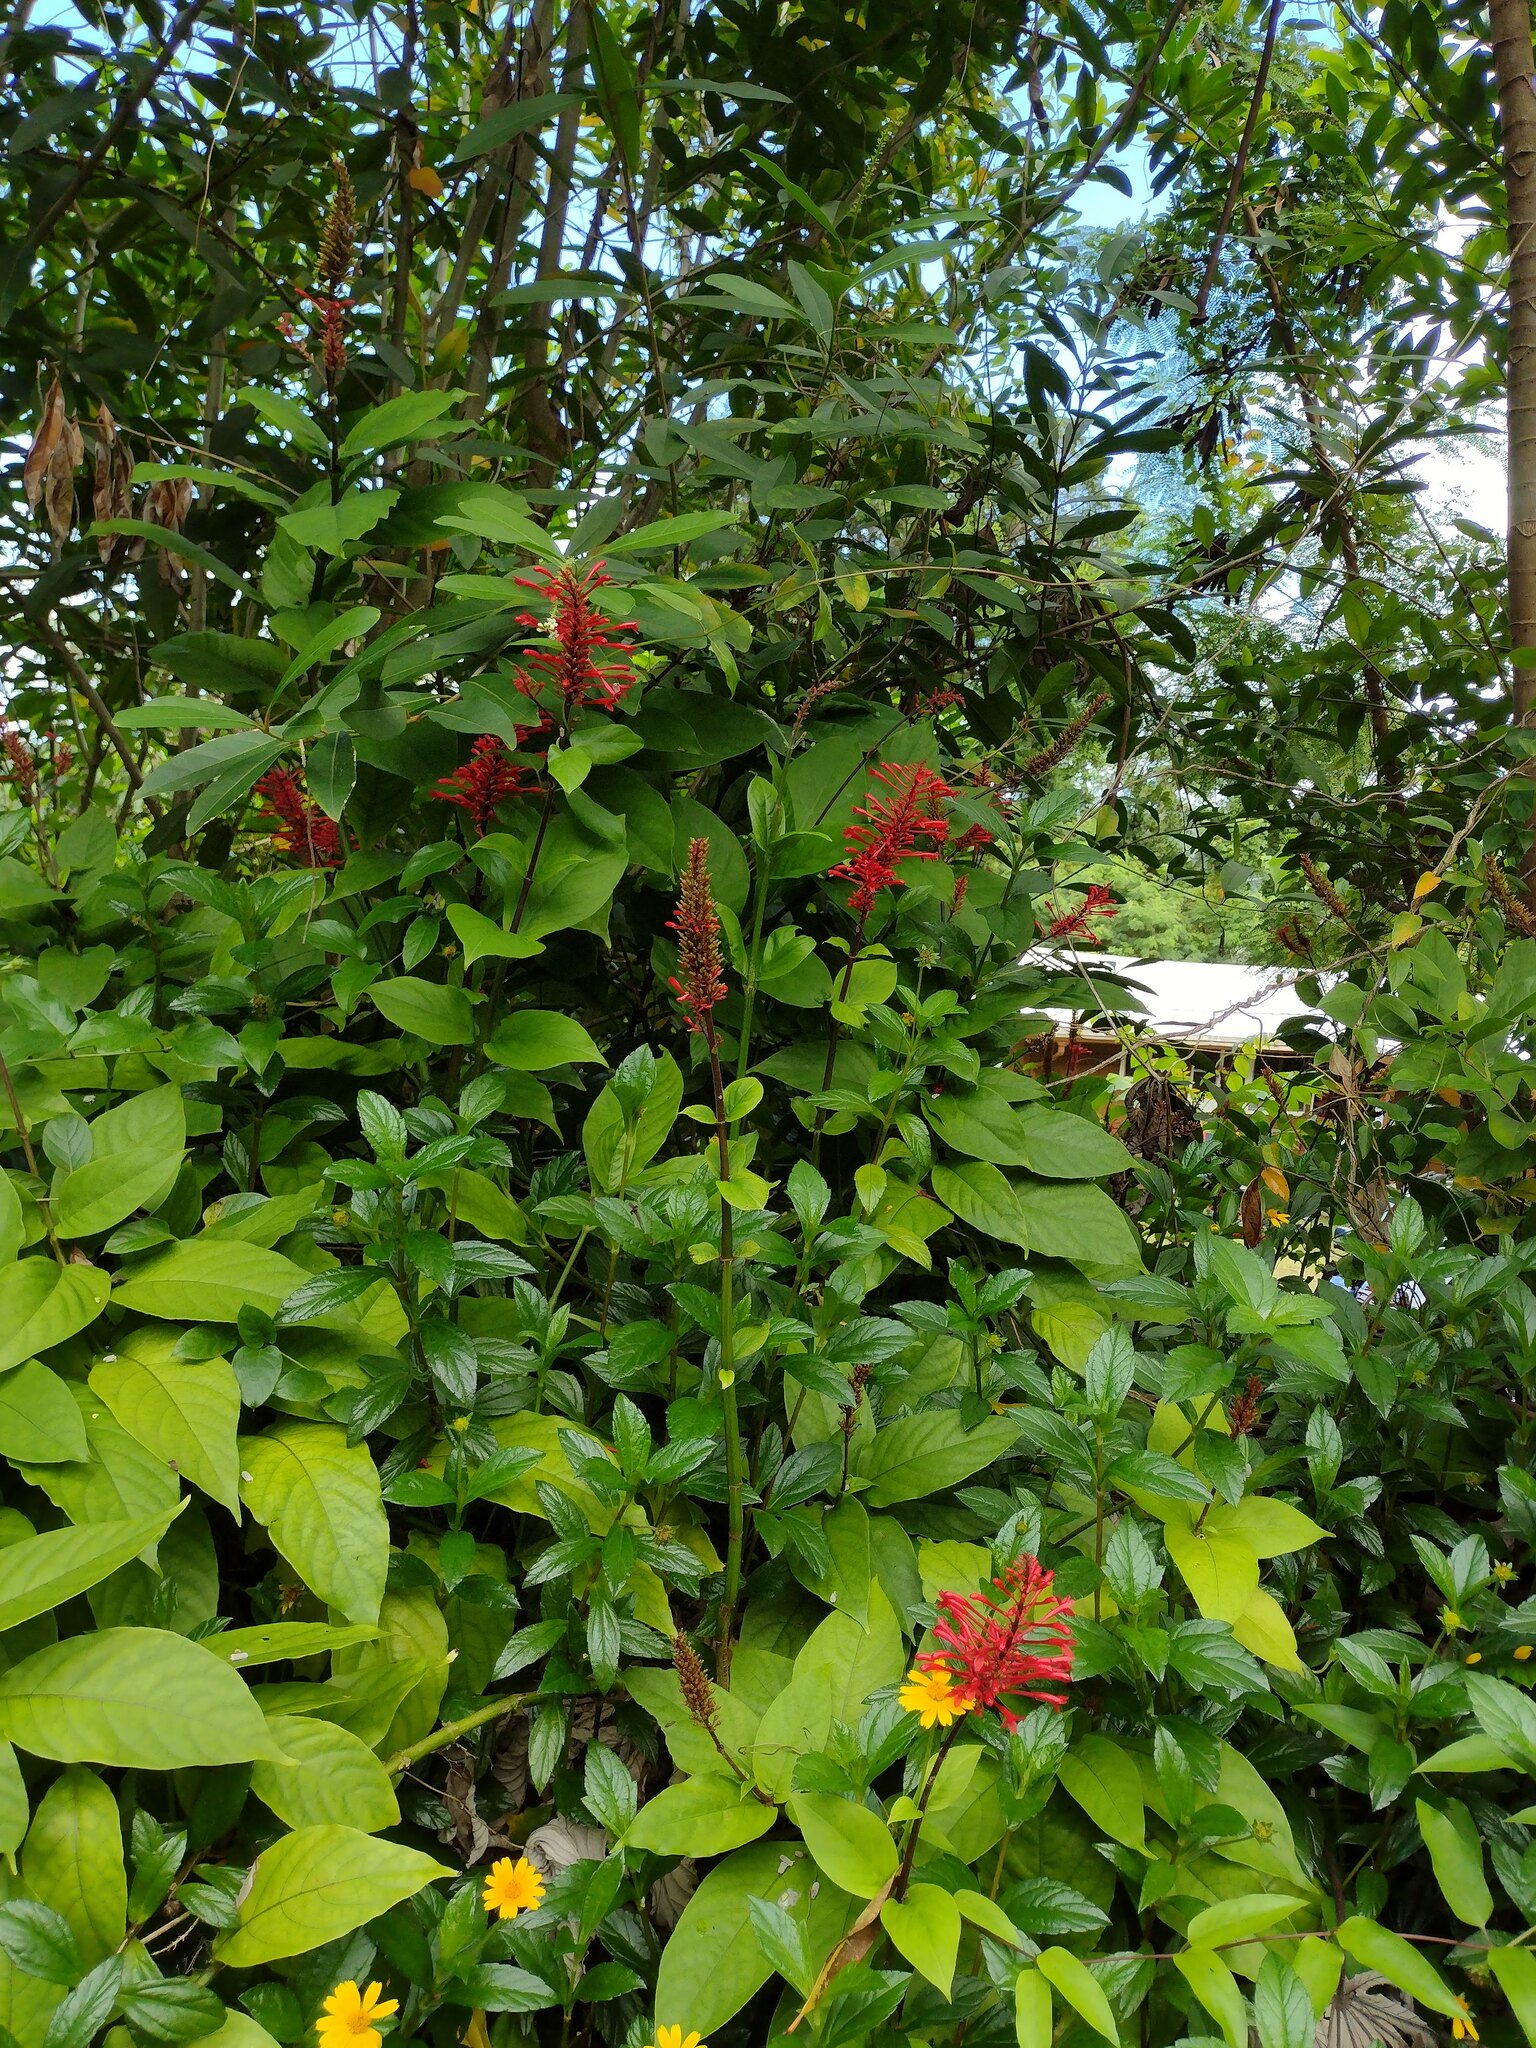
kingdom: Plantae
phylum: Tracheophyta
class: Magnoliopsida
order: Lamiales
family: Acanthaceae
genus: Odontonema
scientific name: Odontonema cuspidatum
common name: Mottled toothedthread
